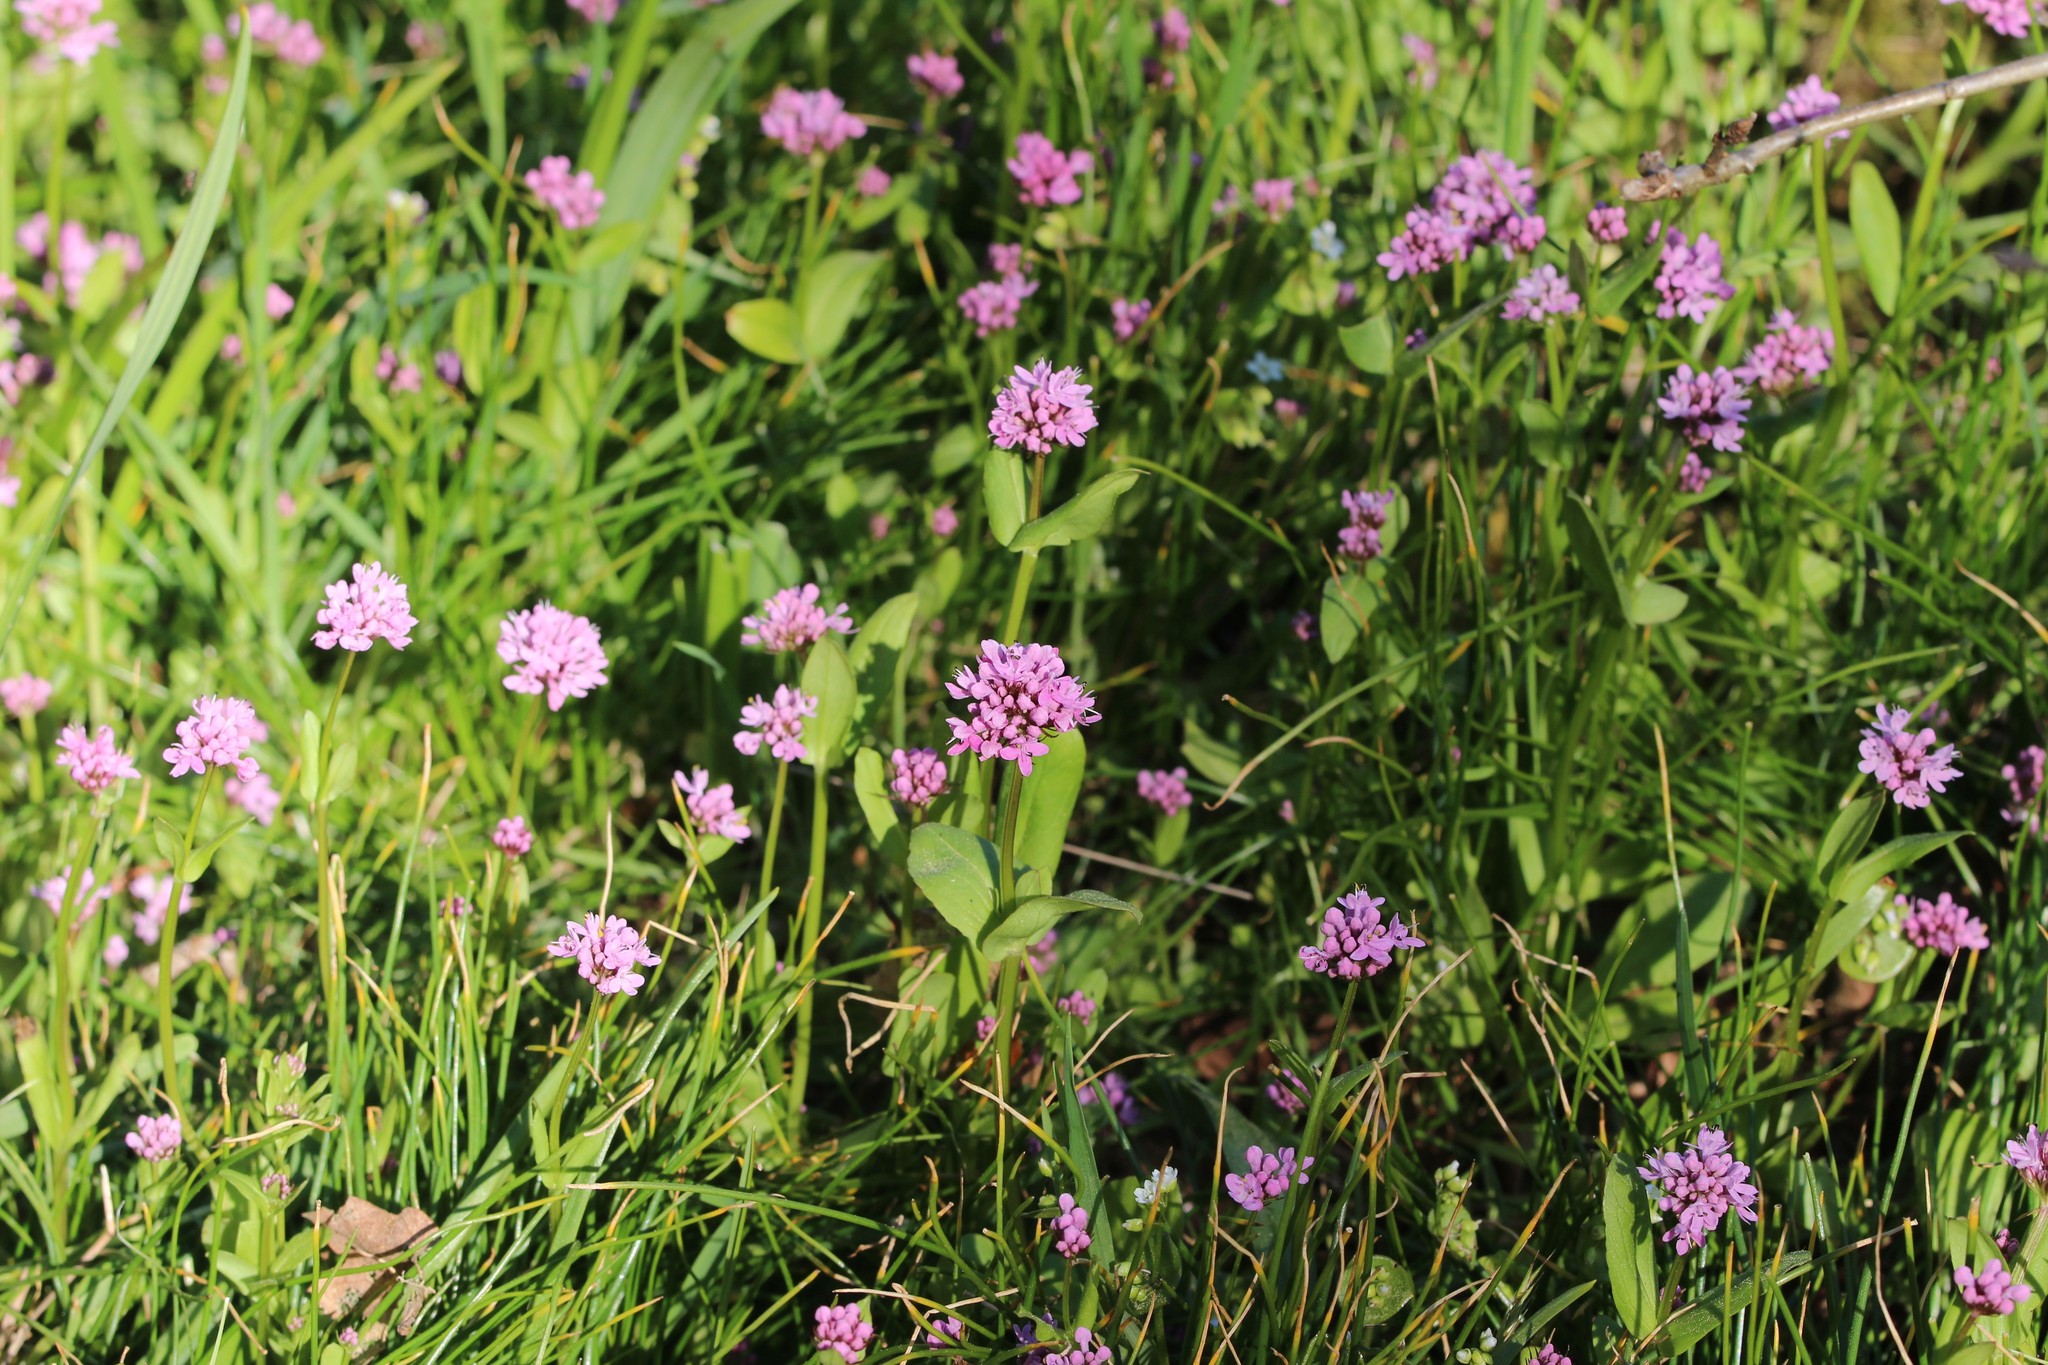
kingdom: Plantae
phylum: Tracheophyta
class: Magnoliopsida
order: Dipsacales
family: Caprifoliaceae
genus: Plectritis
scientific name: Plectritis congesta
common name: Pink plectritis
